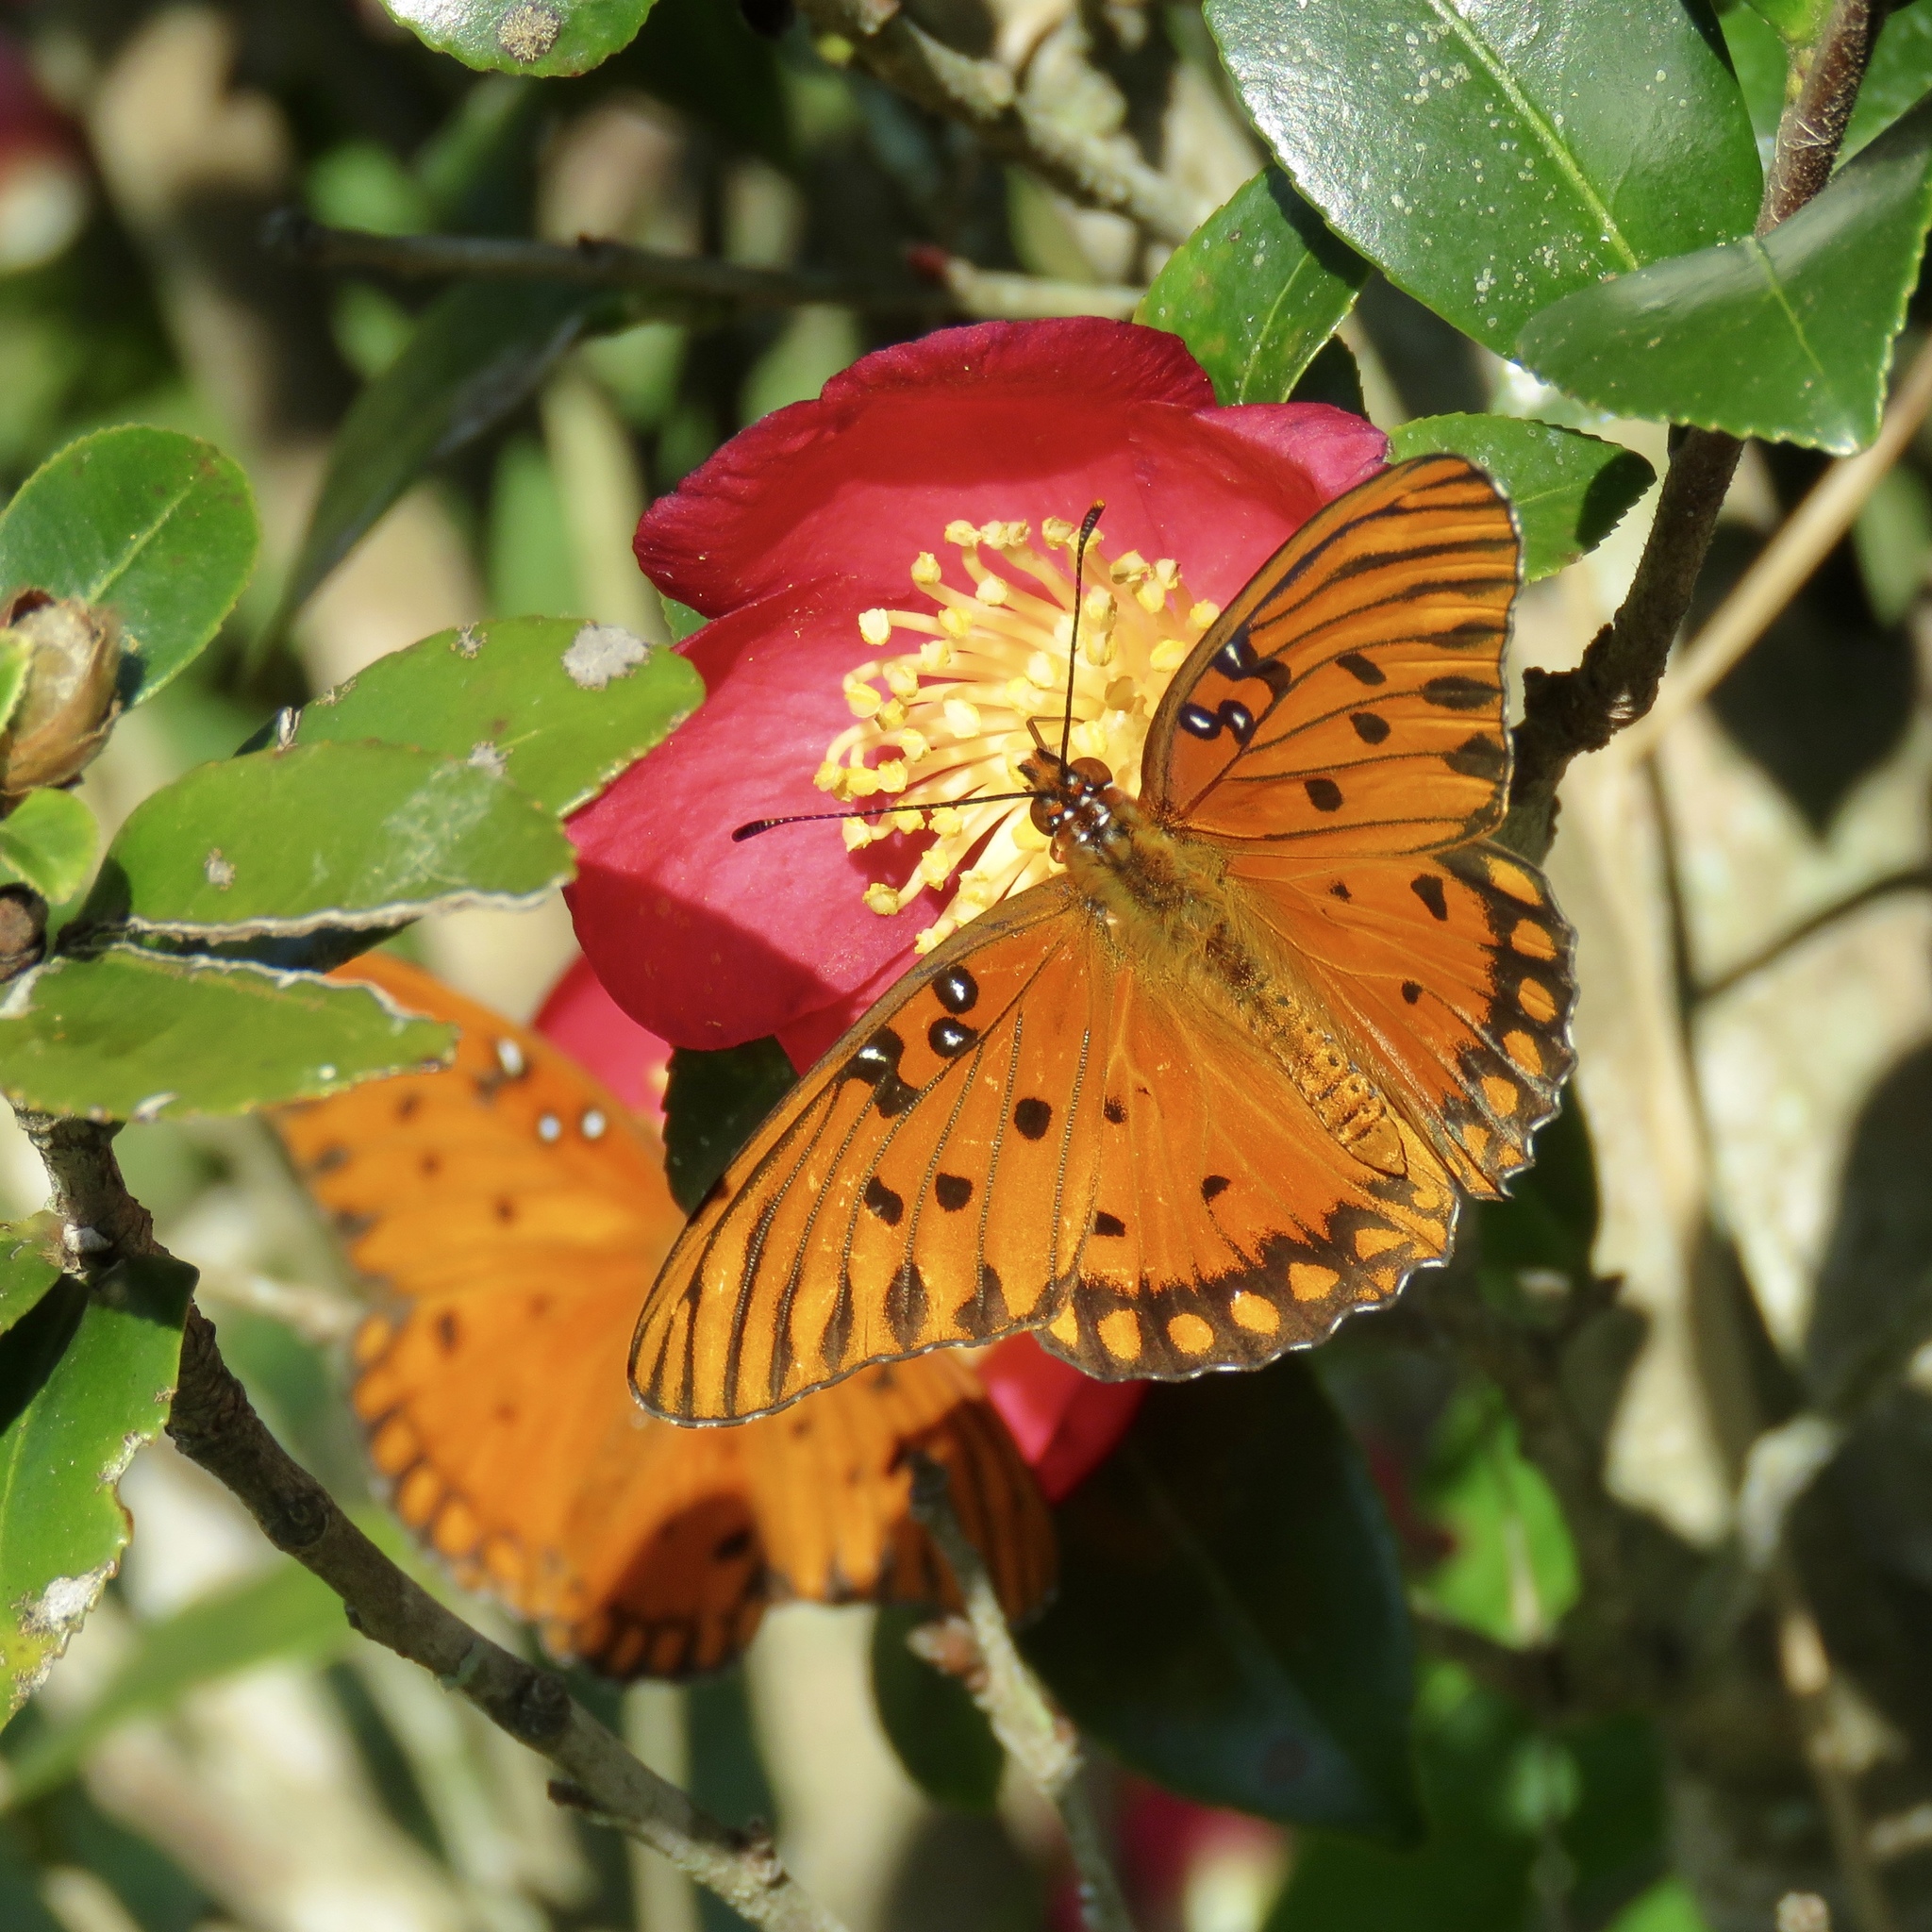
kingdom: Animalia
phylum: Arthropoda
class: Insecta
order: Lepidoptera
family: Nymphalidae
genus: Dione
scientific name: Dione vanillae
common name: Gulf fritillary
